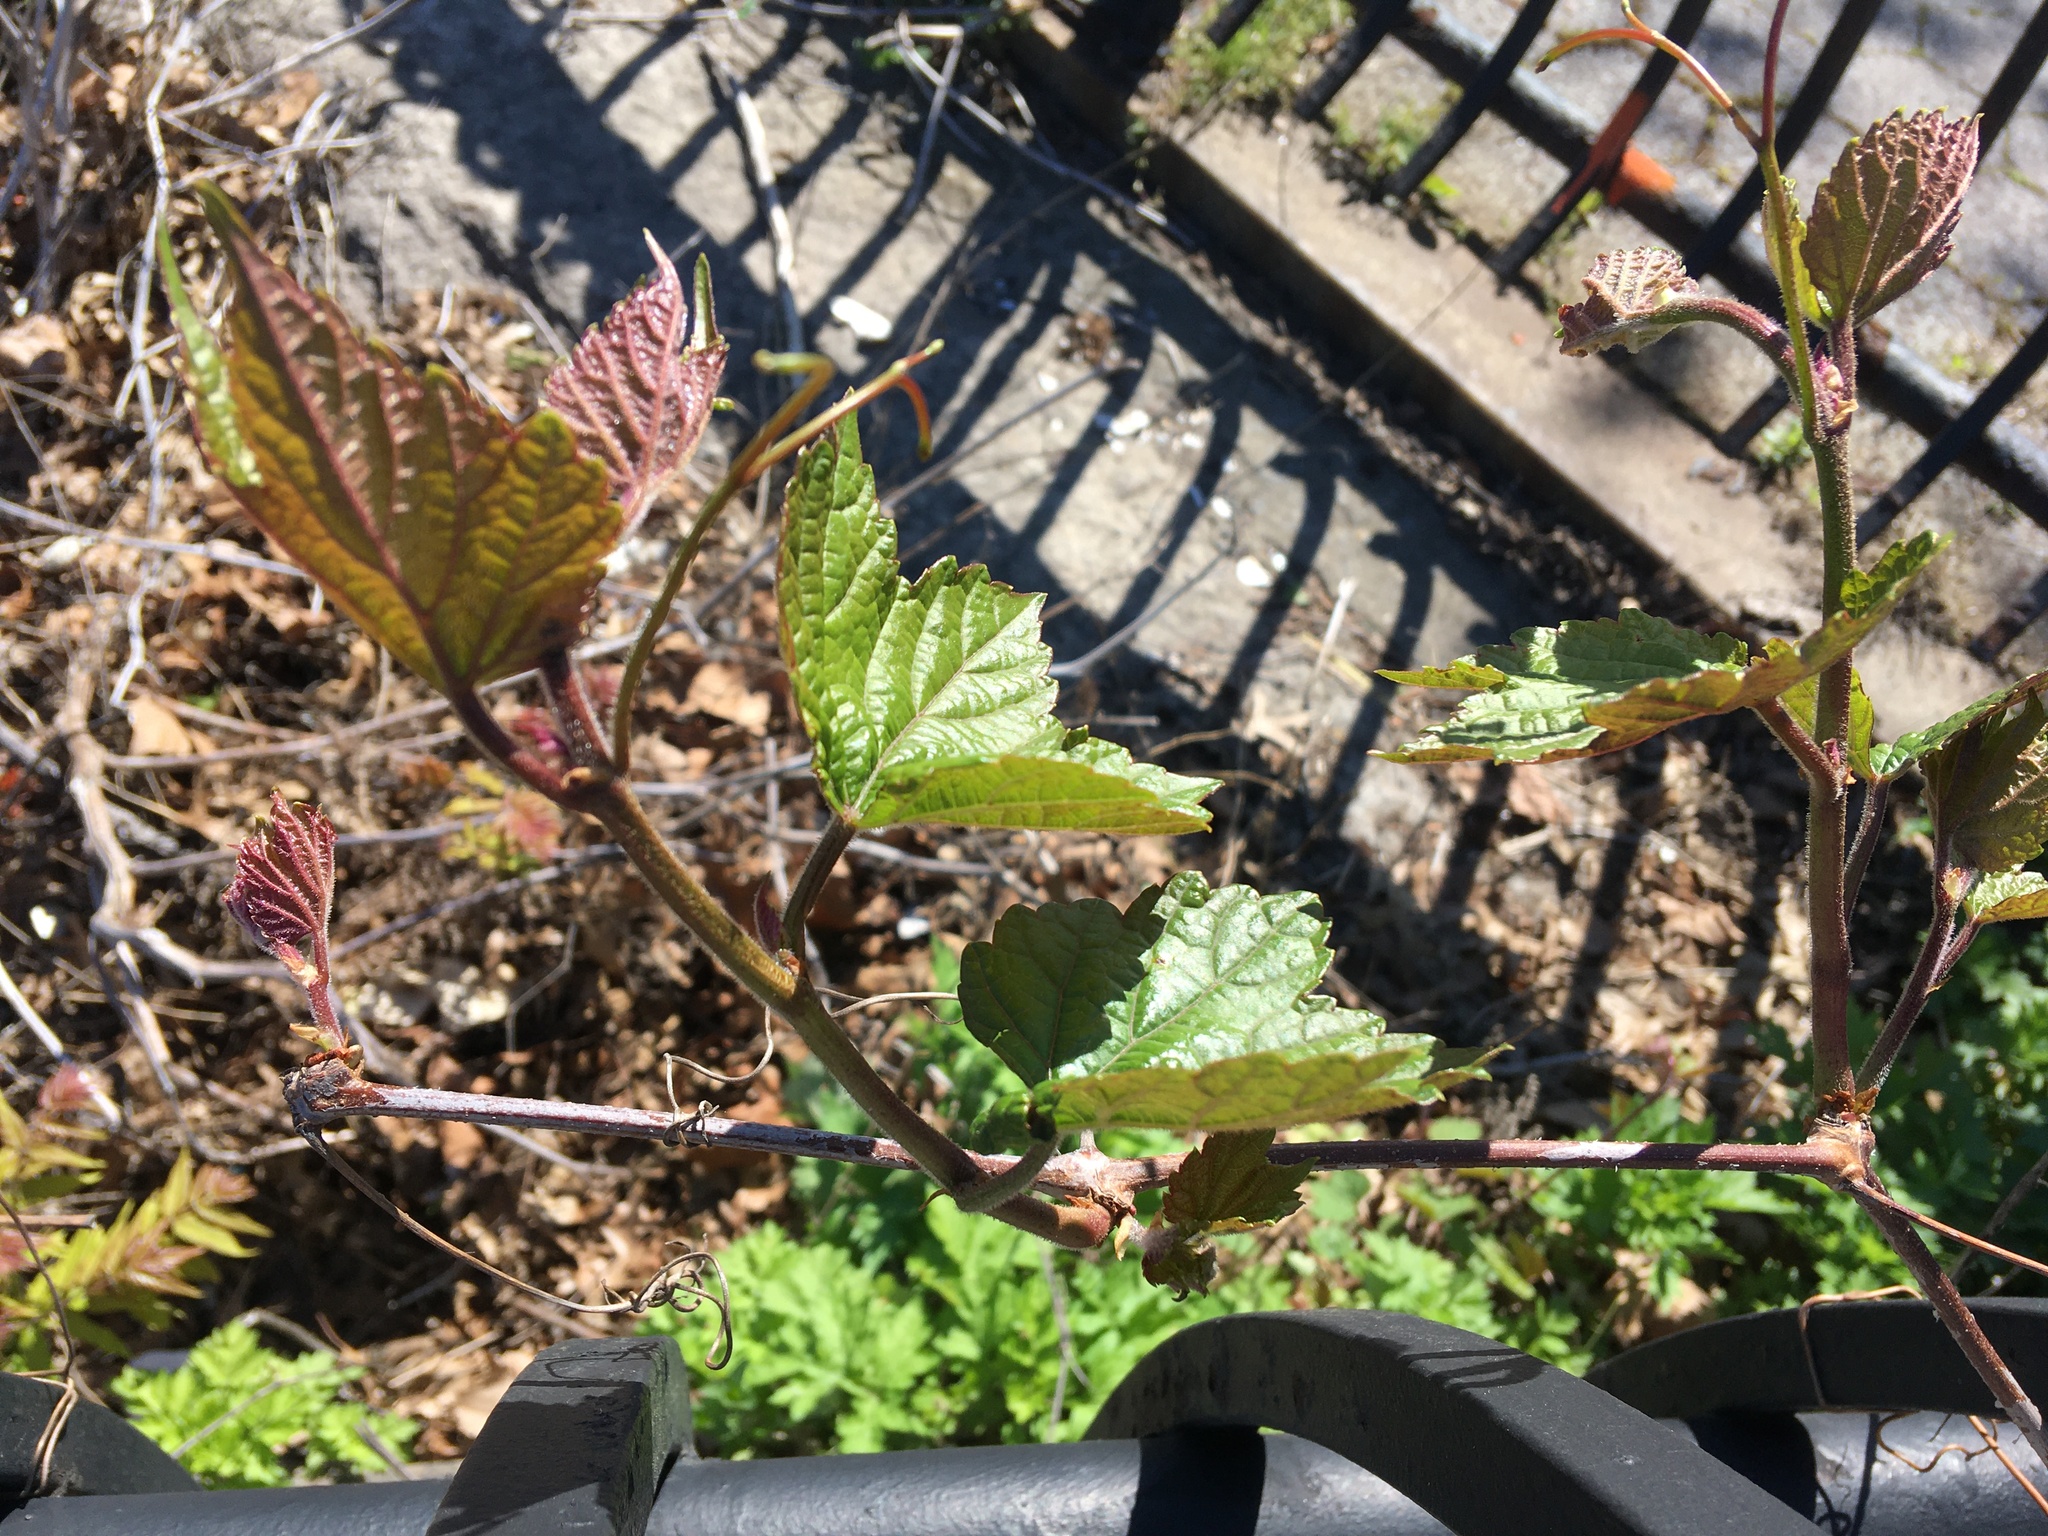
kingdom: Plantae
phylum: Tracheophyta
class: Magnoliopsida
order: Vitales
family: Vitaceae
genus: Ampelopsis
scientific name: Ampelopsis glandulosa
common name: Amur peppervine
